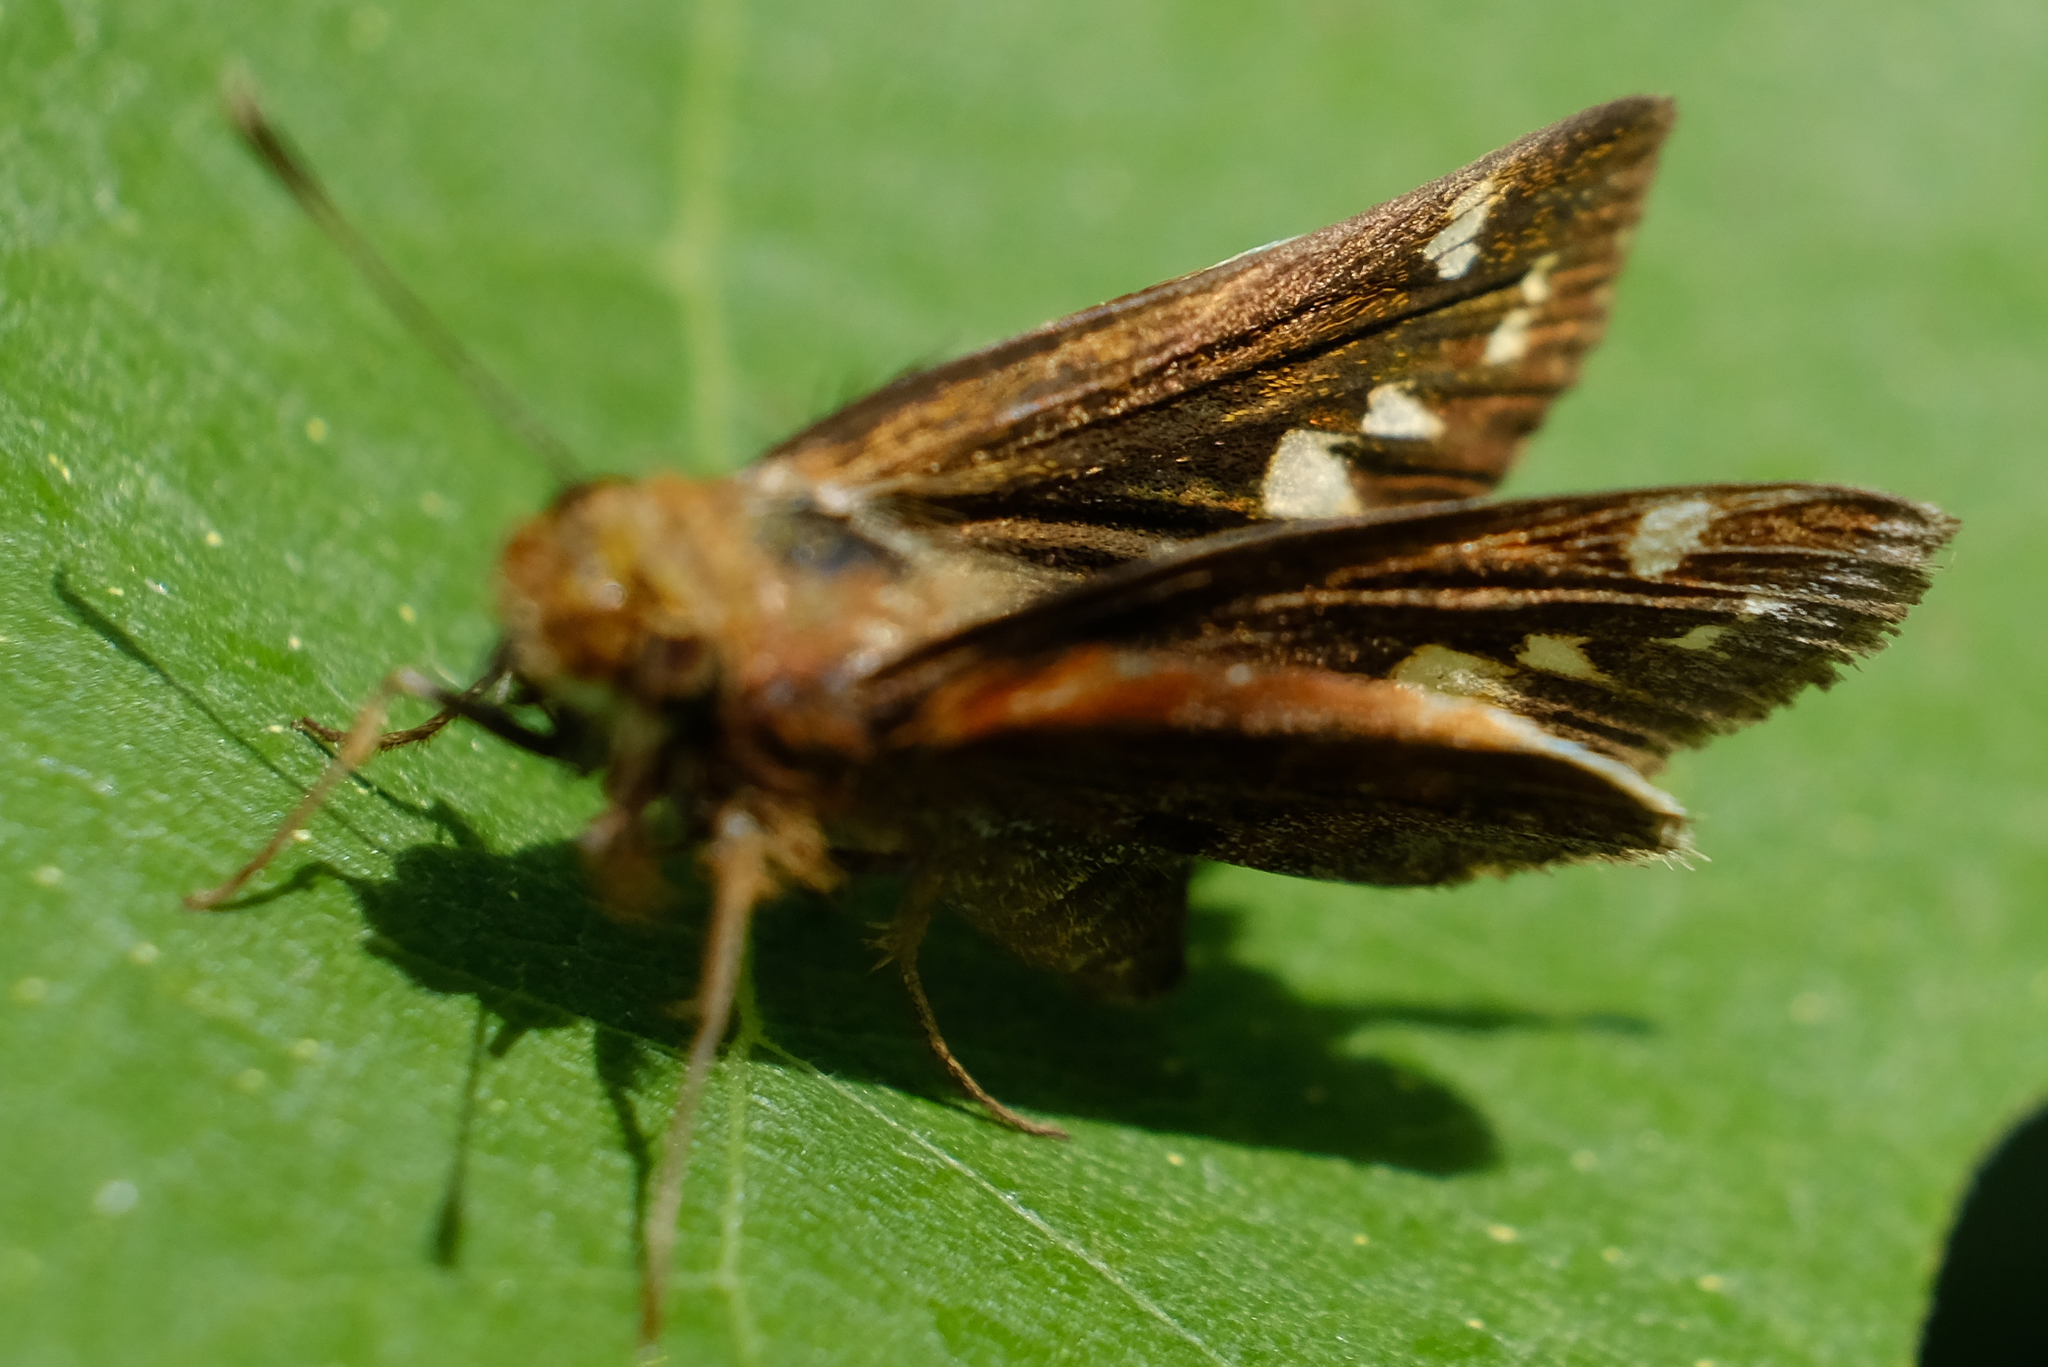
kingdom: Animalia
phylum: Arthropoda
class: Insecta
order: Lepidoptera
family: Hesperiidae
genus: Lon
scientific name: Lon zabulon
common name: Zabulon skipper
